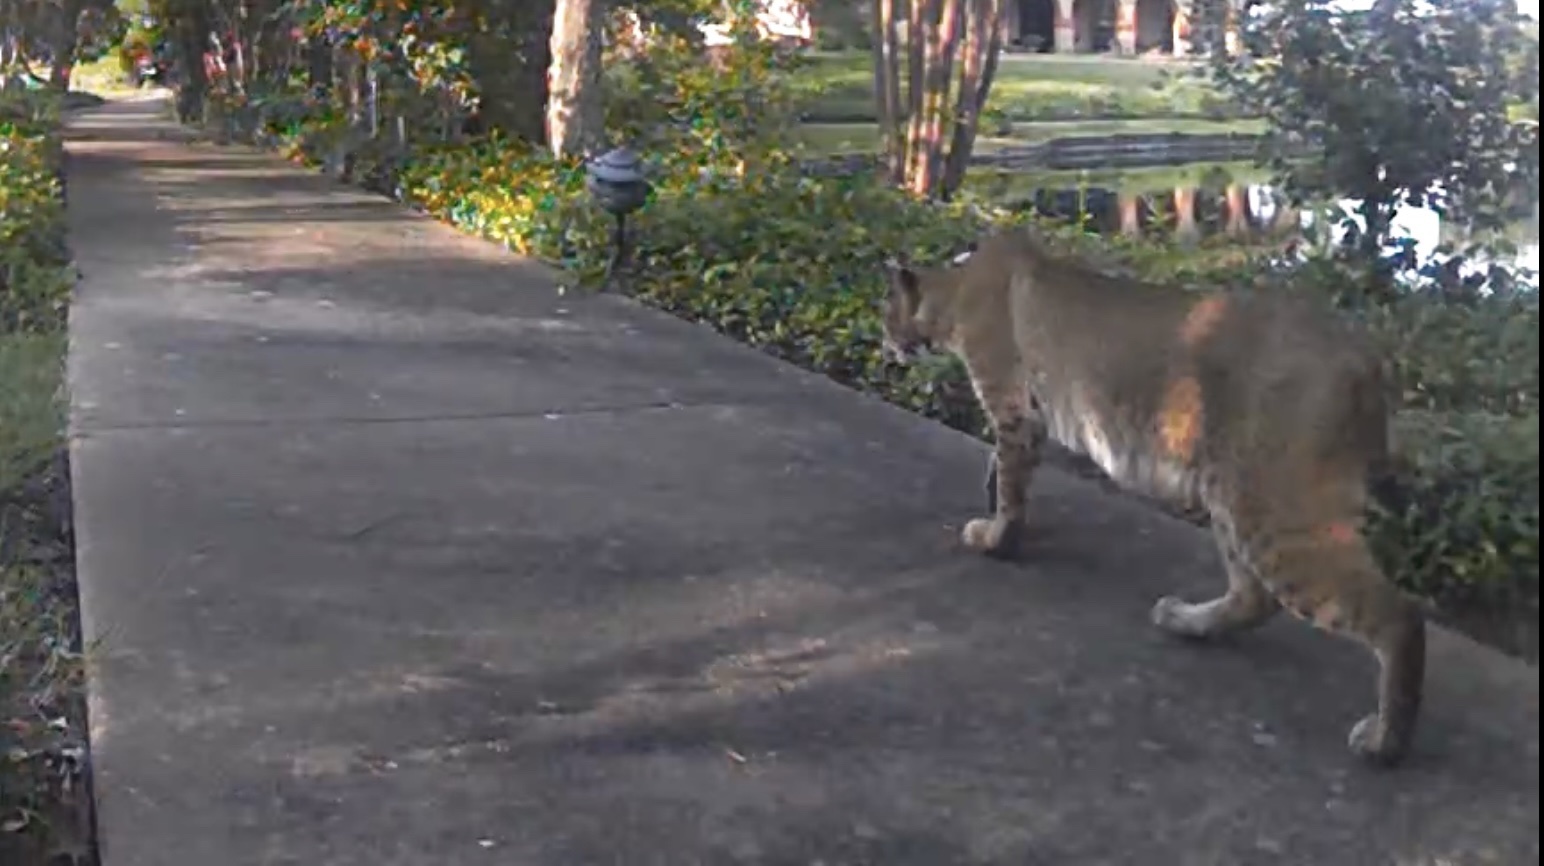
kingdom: Animalia
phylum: Chordata
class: Mammalia
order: Carnivora
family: Felidae
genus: Lynx
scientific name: Lynx rufus
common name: Bobcat
